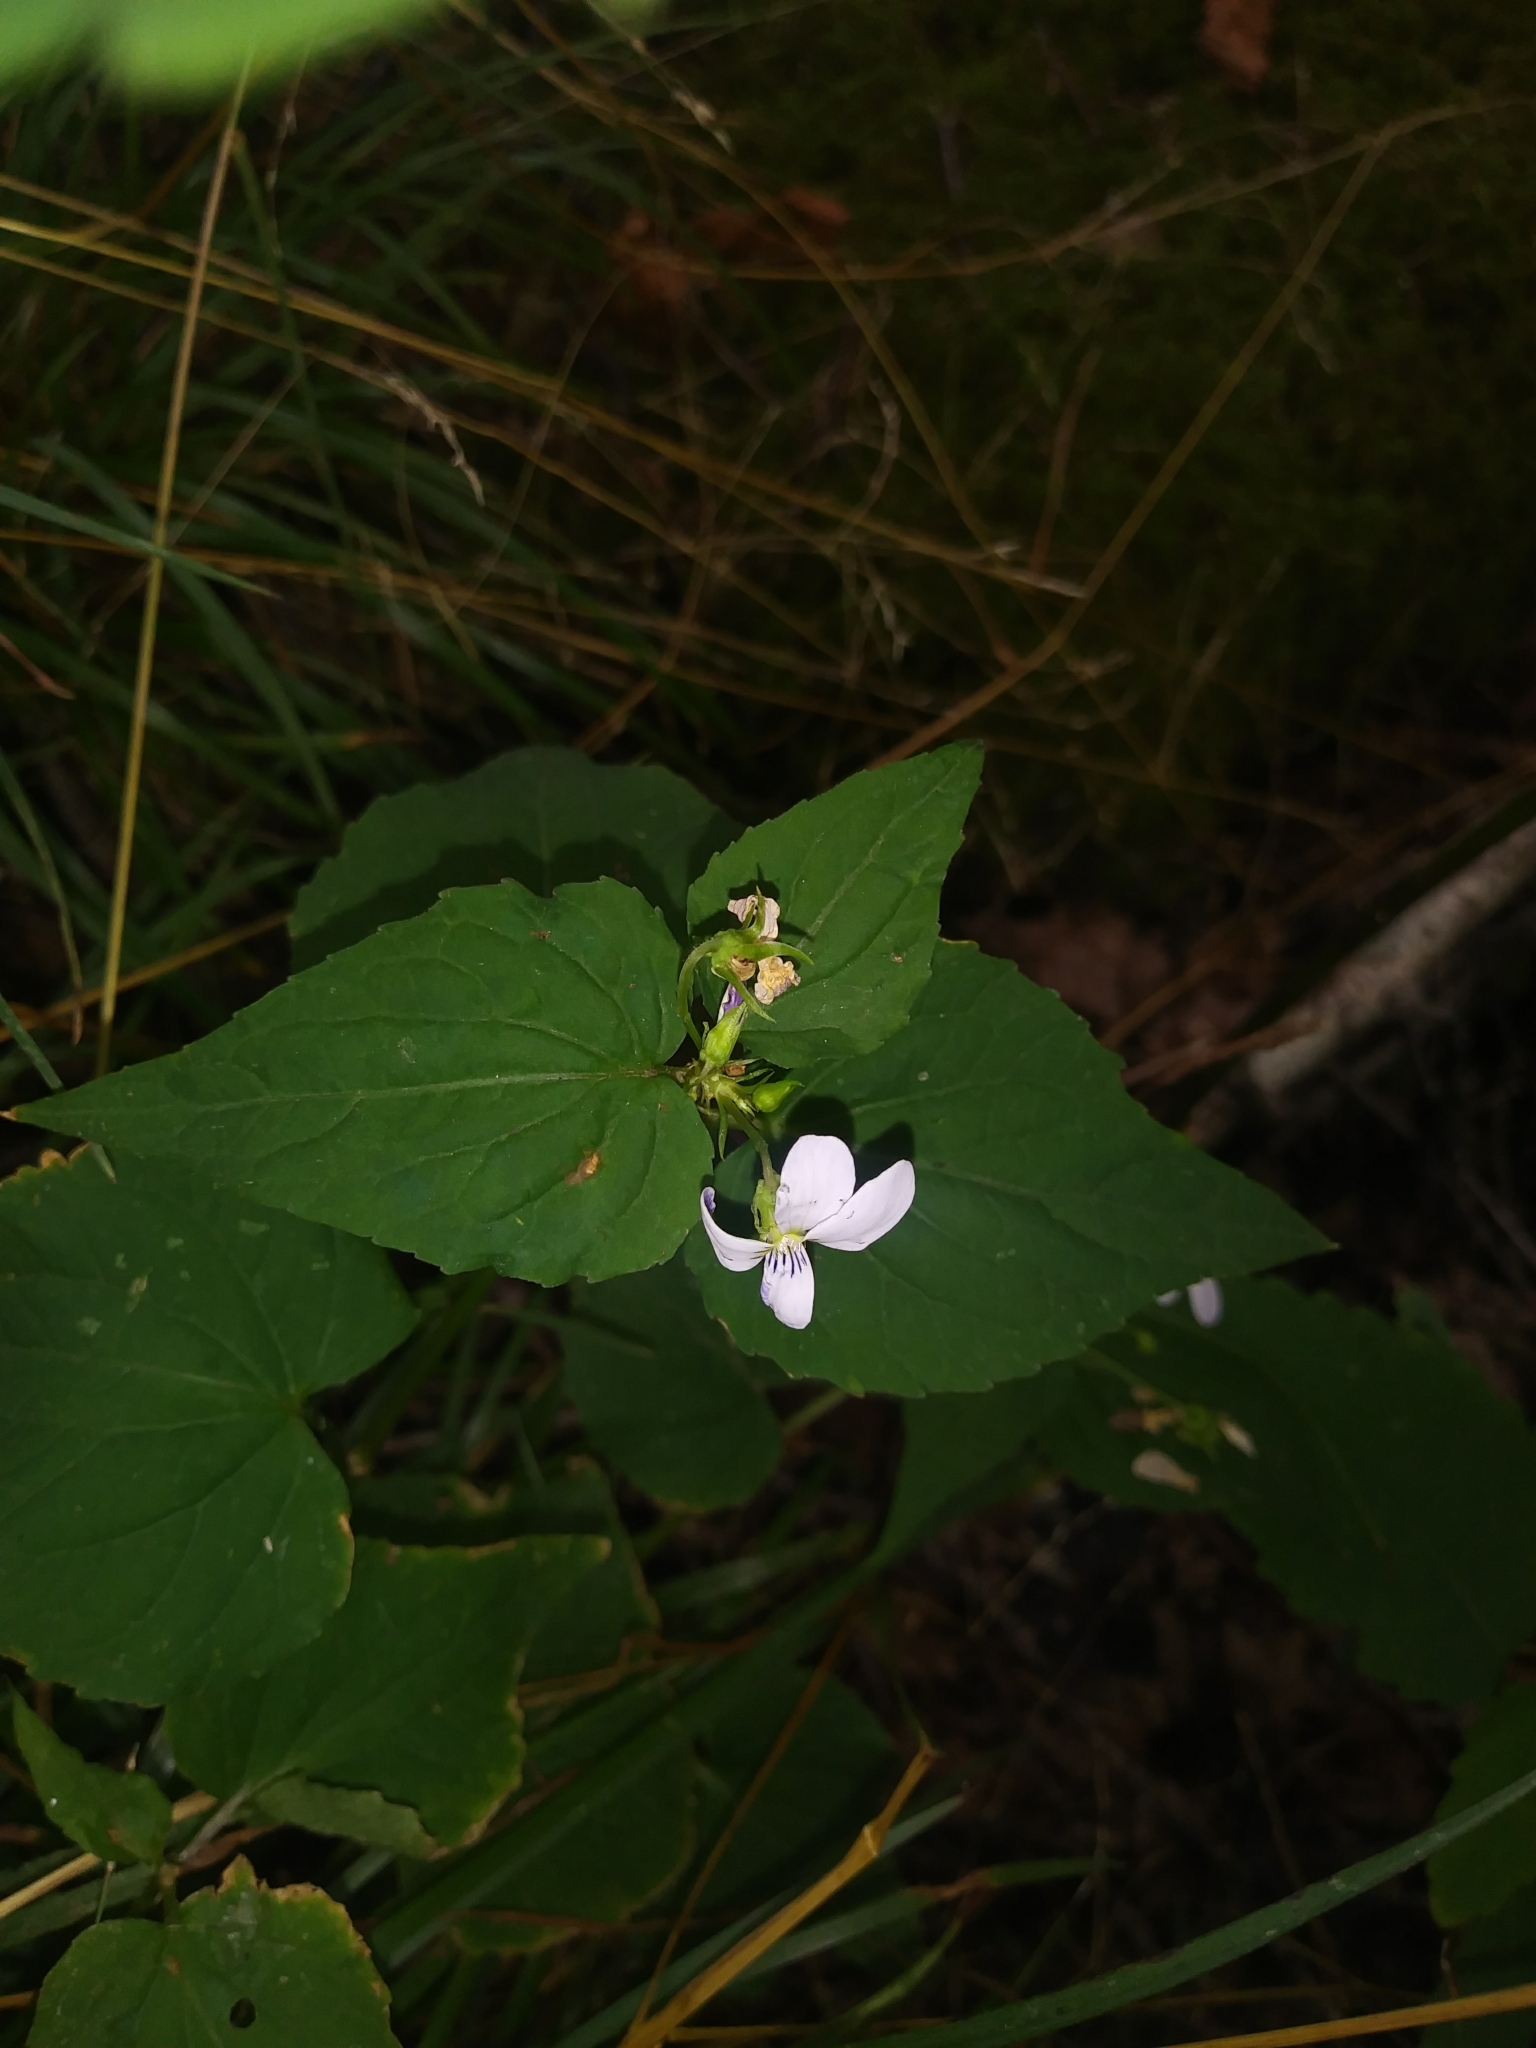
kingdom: Plantae
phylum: Tracheophyta
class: Magnoliopsida
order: Malpighiales
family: Violaceae
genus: Viola
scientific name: Viola canadensis
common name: Canada violet
